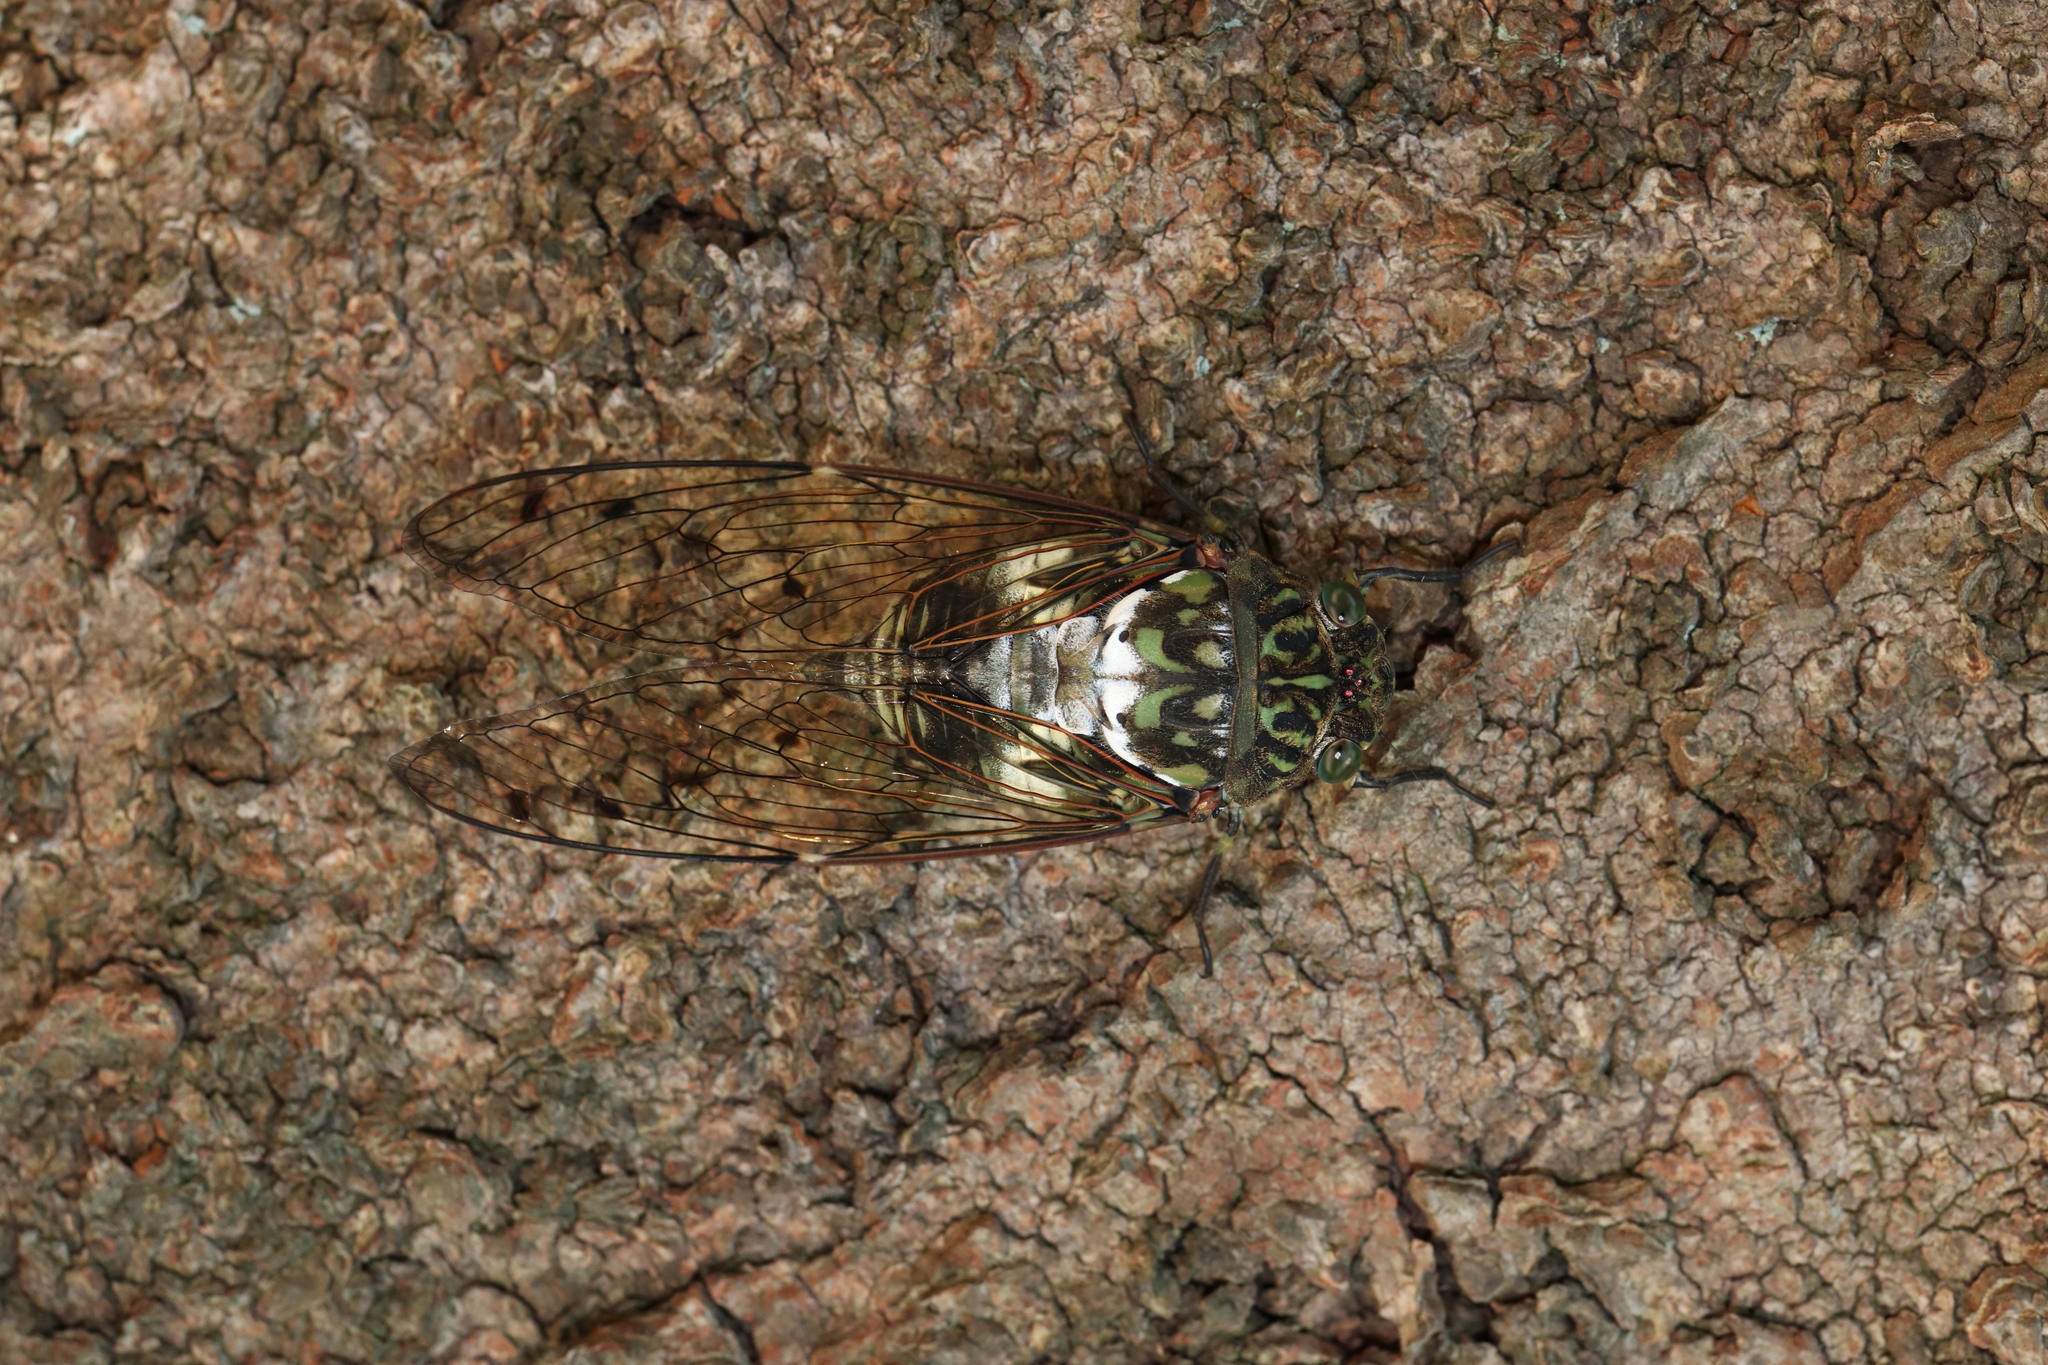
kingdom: Animalia
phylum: Arthropoda
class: Insecta
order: Hemiptera
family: Cicadidae
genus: Hyalessa
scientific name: Hyalessa maculaticollis
